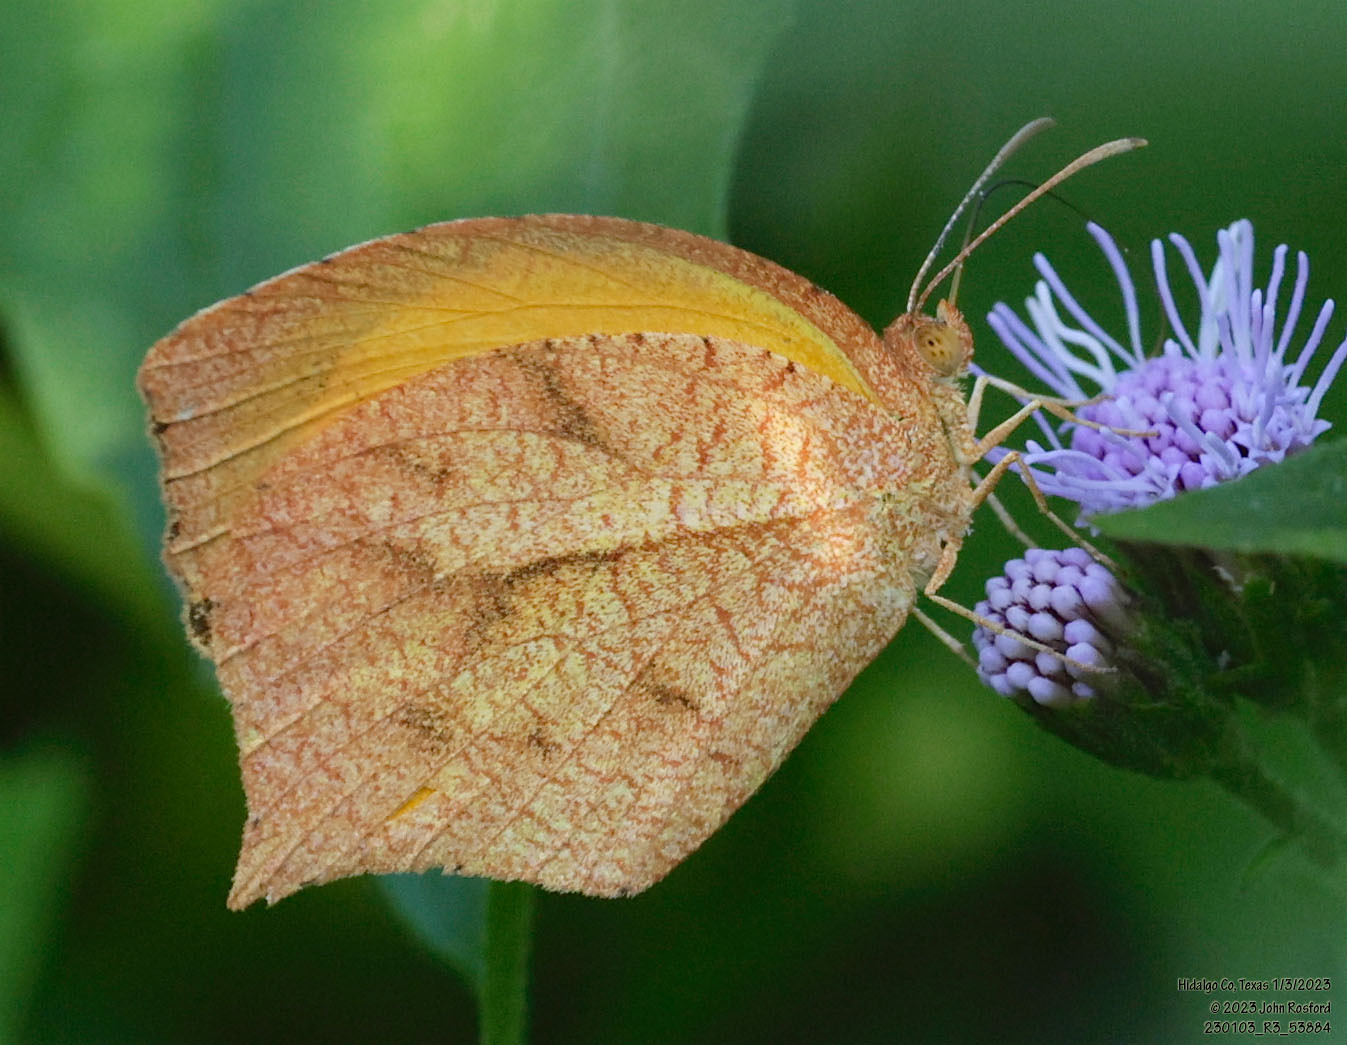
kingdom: Animalia
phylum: Arthropoda
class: Insecta
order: Lepidoptera
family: Pieridae
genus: Pyrisitia
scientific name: Pyrisitia proterpia
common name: Tailed orange
